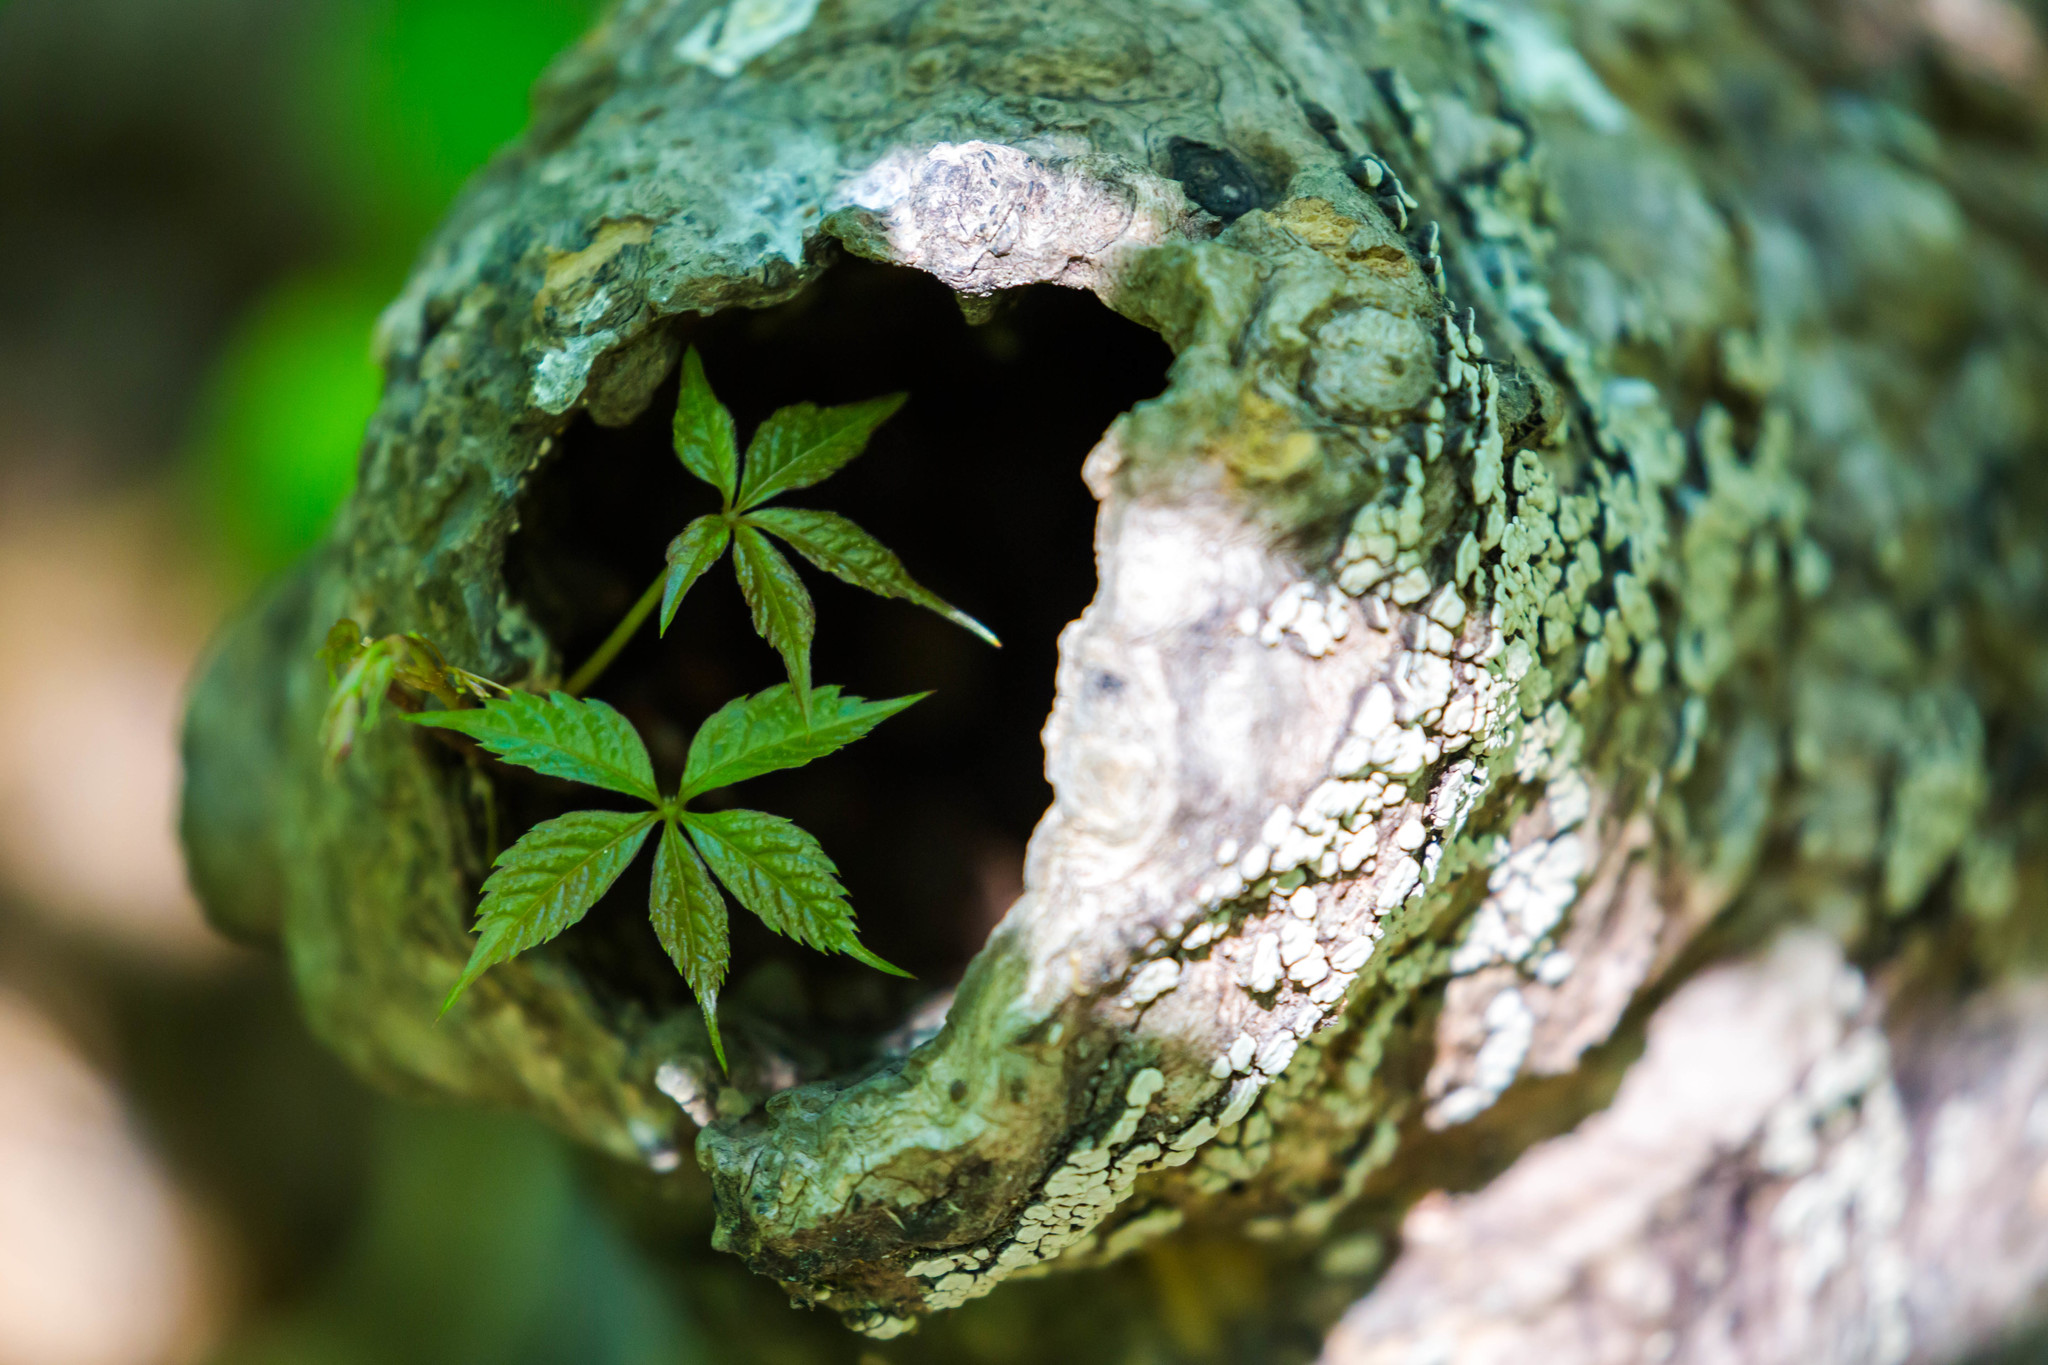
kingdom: Plantae
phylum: Tracheophyta
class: Magnoliopsida
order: Vitales
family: Vitaceae
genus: Parthenocissus
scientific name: Parthenocissus quinquefolia
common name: Virginia-creeper
